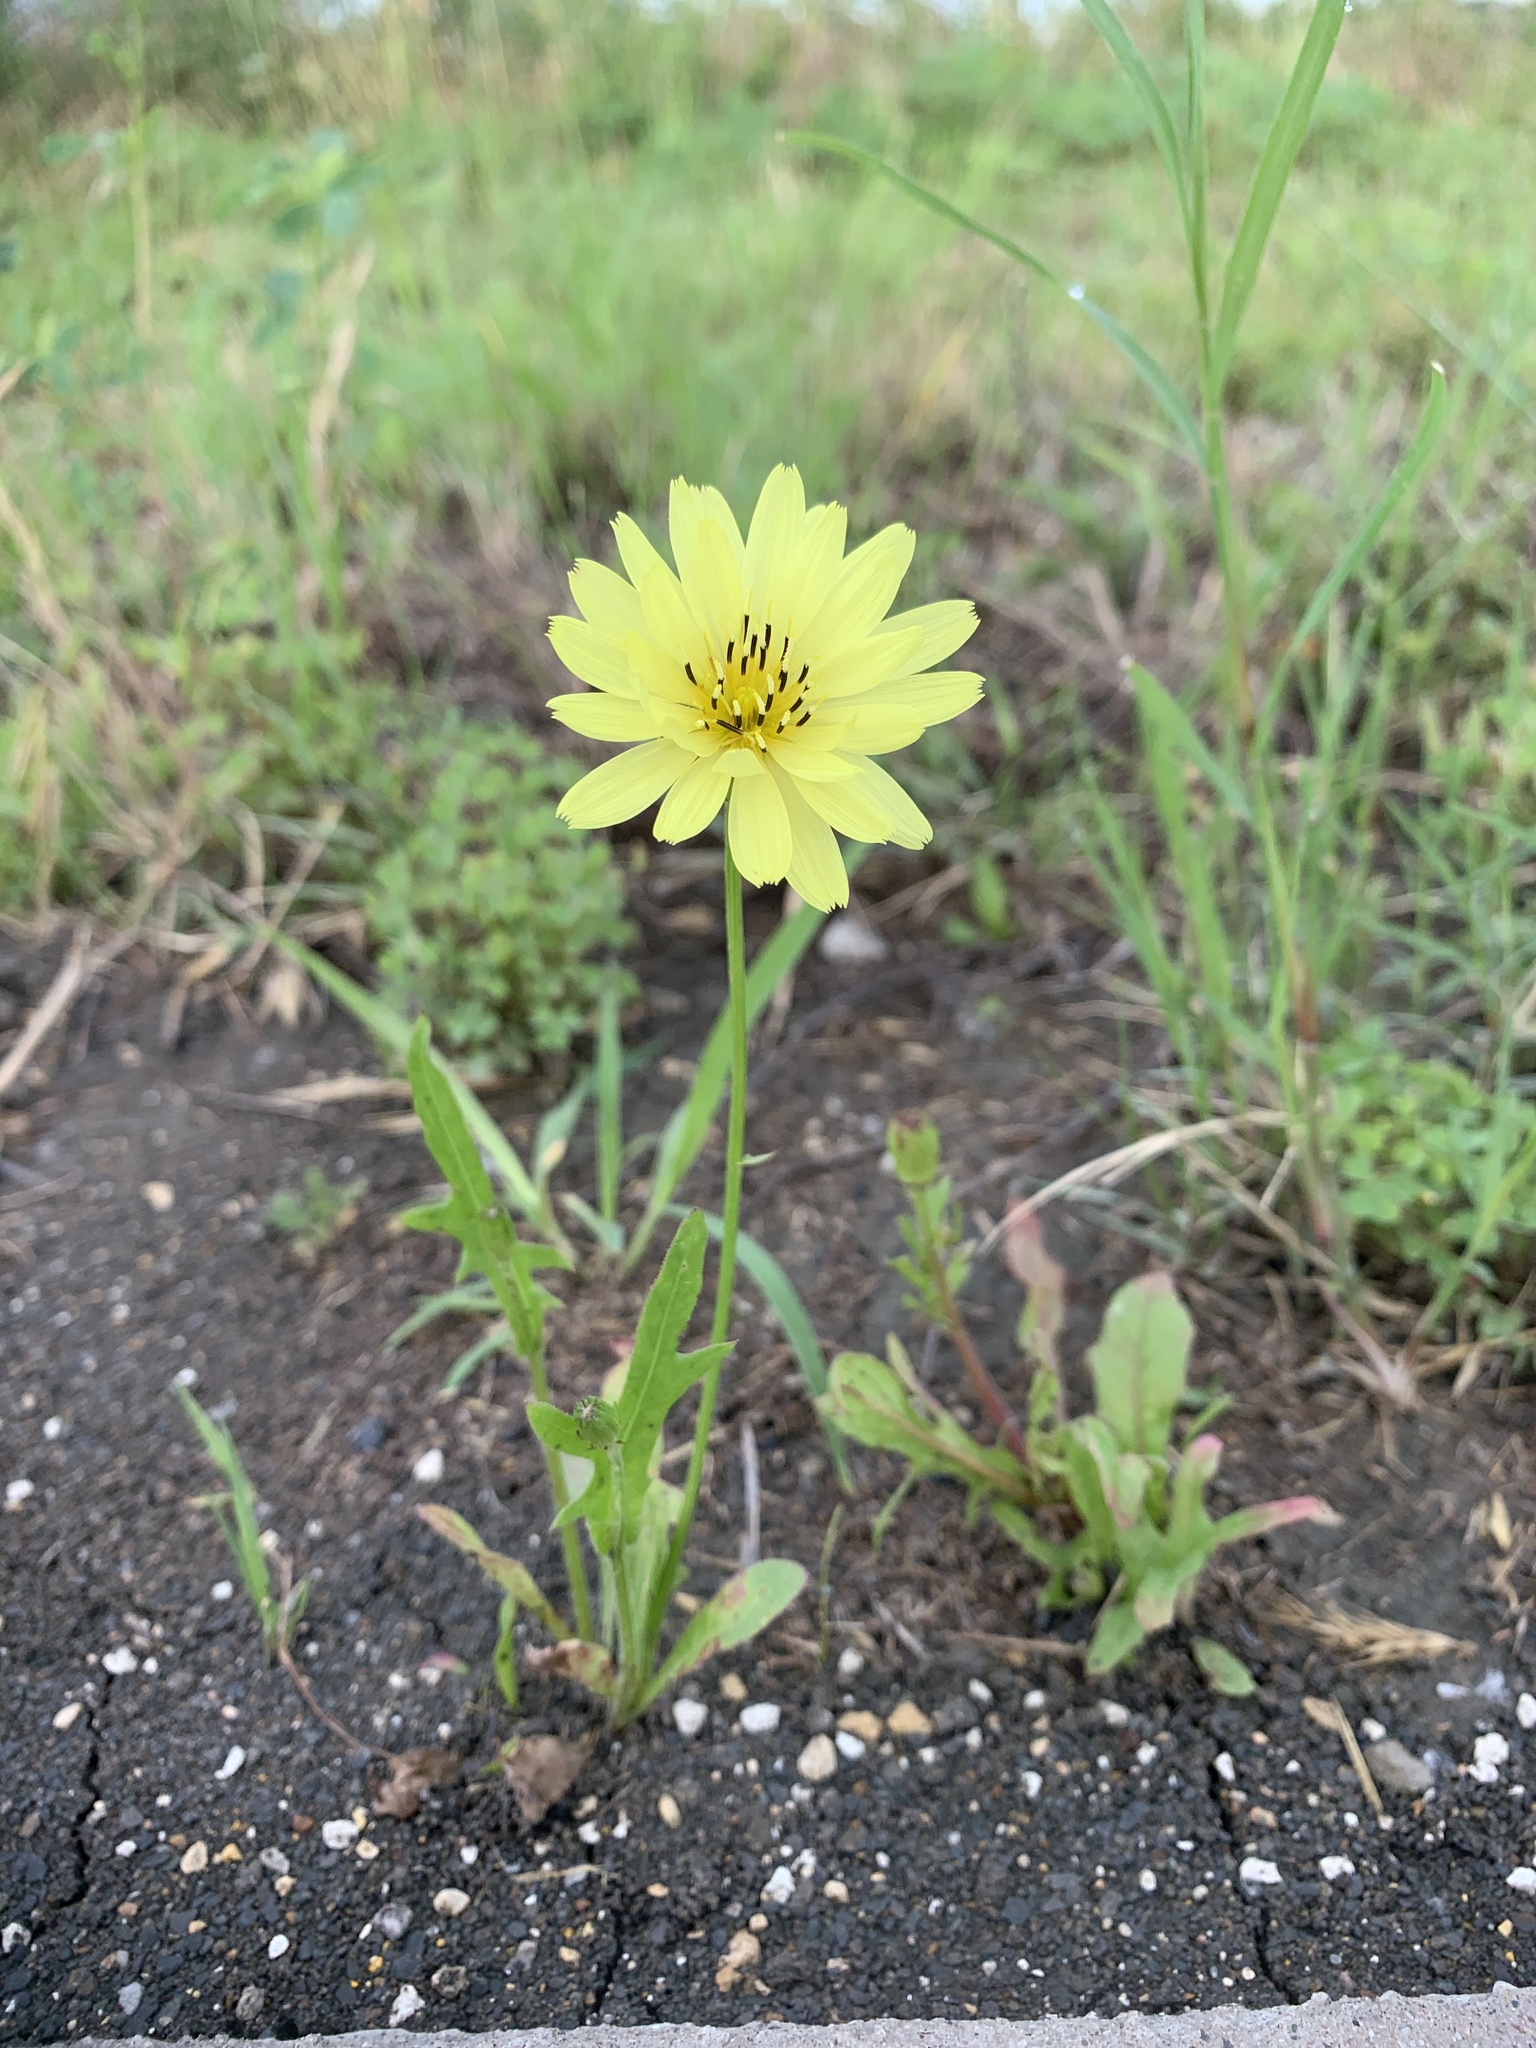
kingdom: Plantae
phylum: Tracheophyta
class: Magnoliopsida
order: Asterales
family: Asteraceae
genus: Pyrrhopappus
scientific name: Pyrrhopappus pauciflorus
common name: Texas false dandelion
